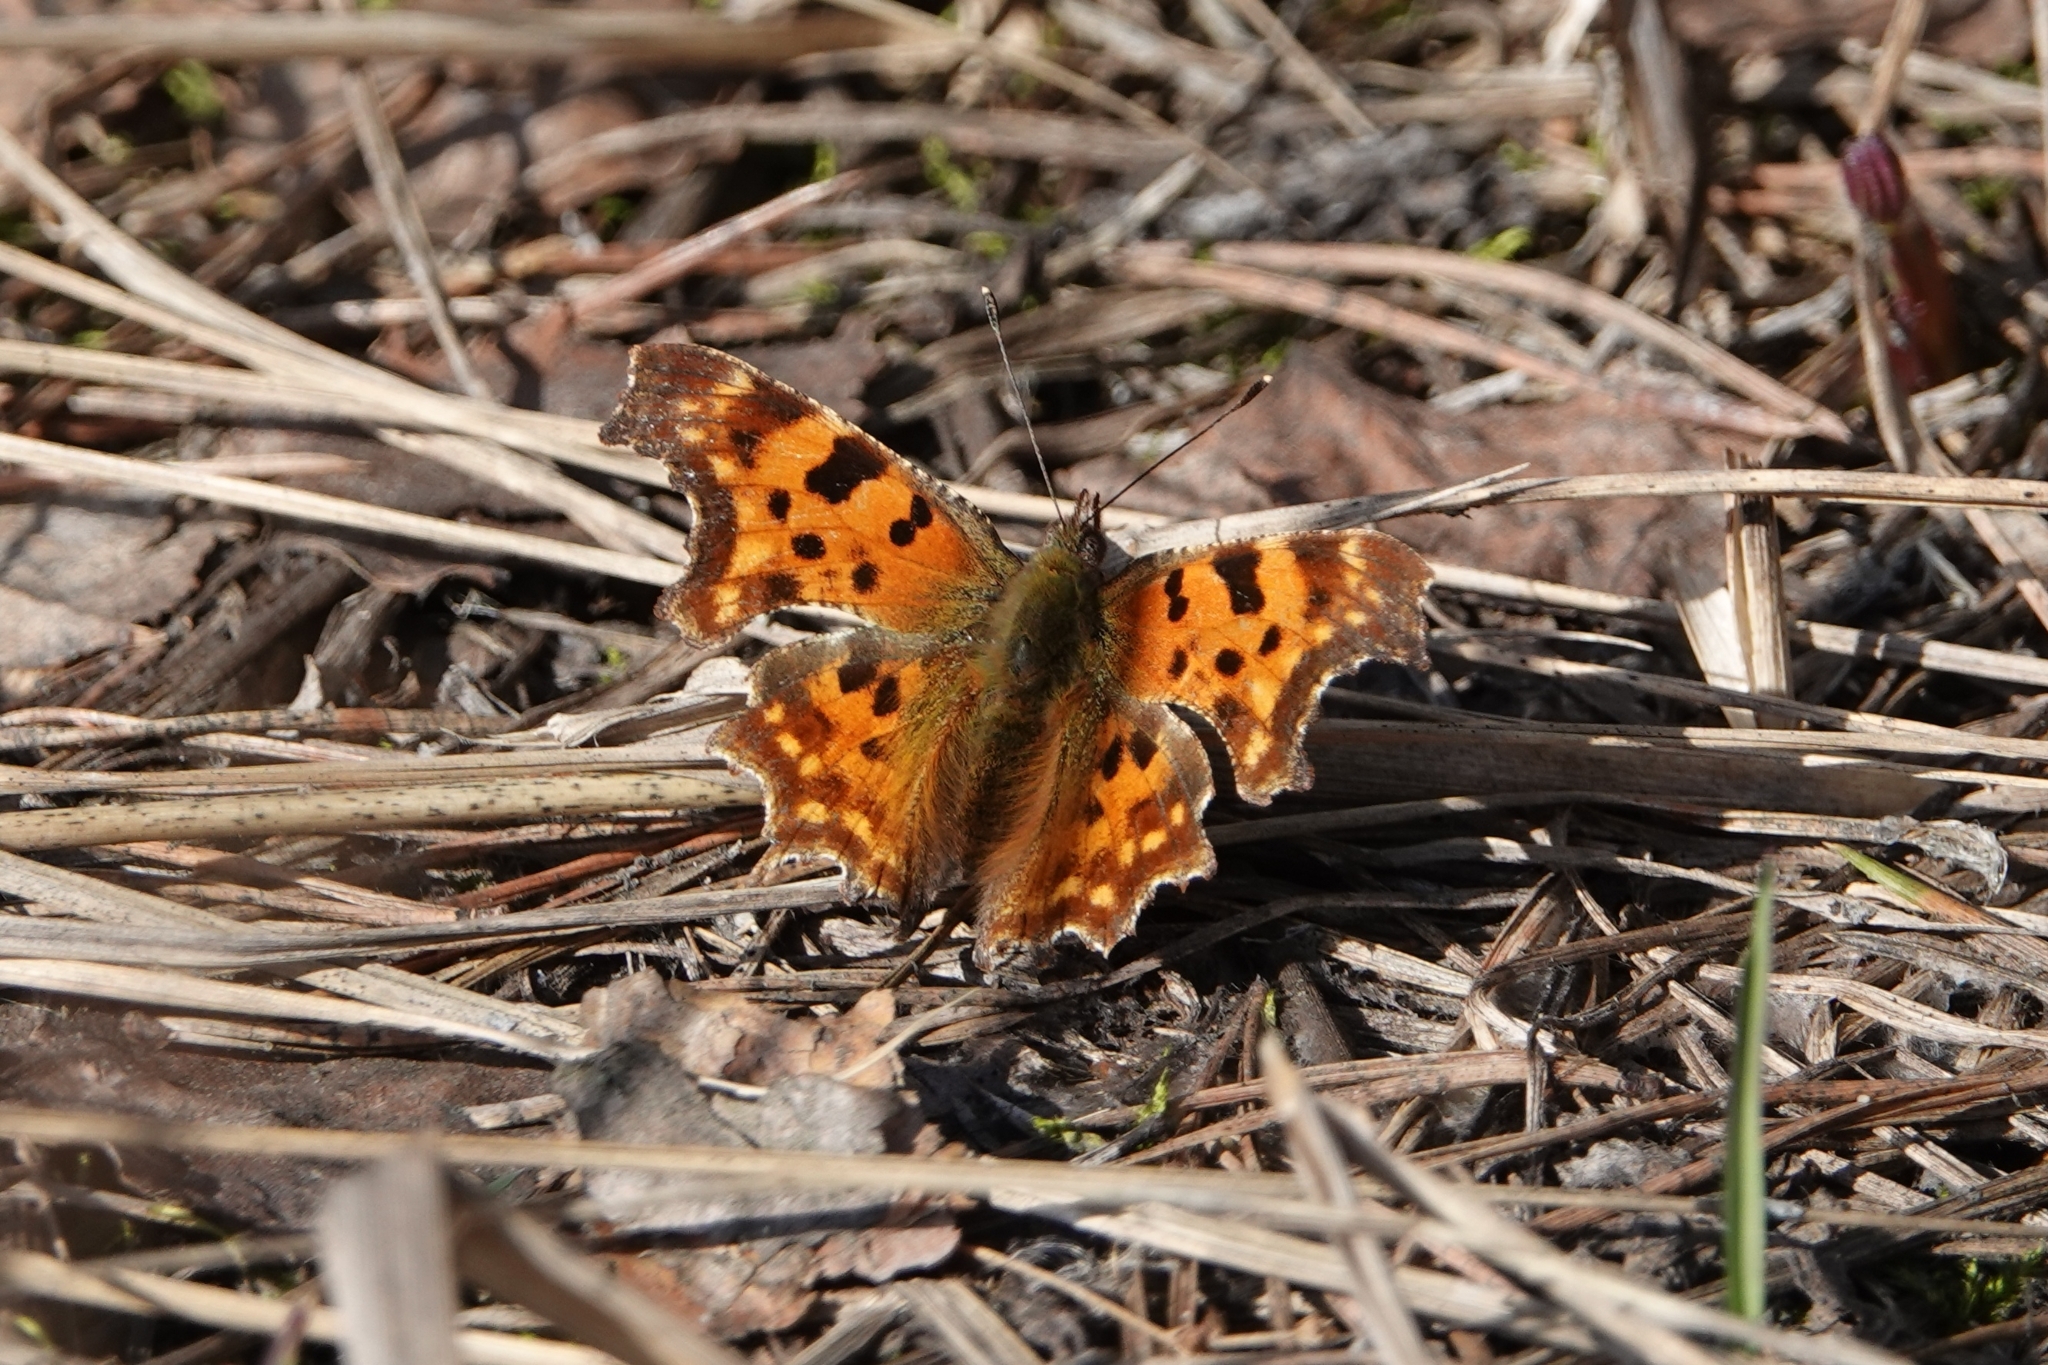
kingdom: Animalia
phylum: Arthropoda
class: Insecta
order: Lepidoptera
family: Nymphalidae
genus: Polygonia
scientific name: Polygonia c-album
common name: Comma
